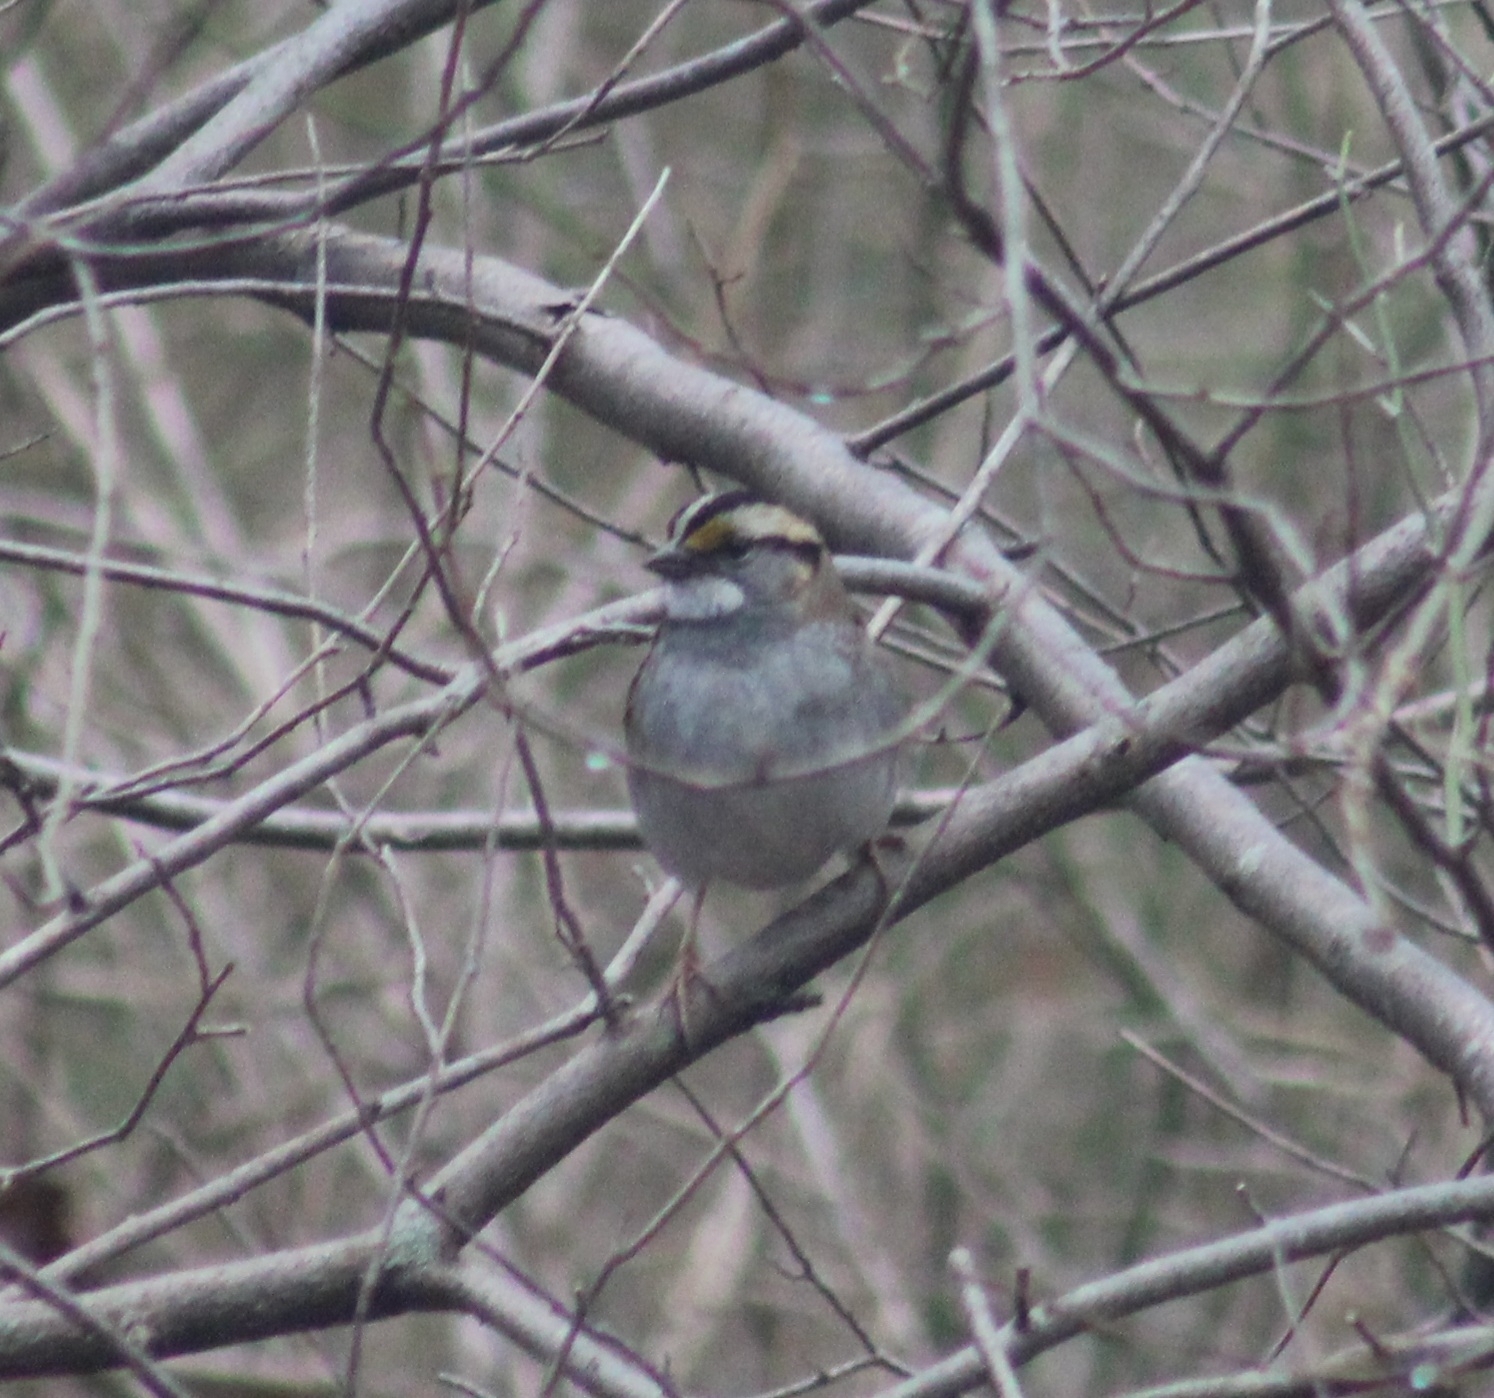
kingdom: Animalia
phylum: Chordata
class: Aves
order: Passeriformes
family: Passerellidae
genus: Zonotrichia
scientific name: Zonotrichia albicollis
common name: White-throated sparrow
